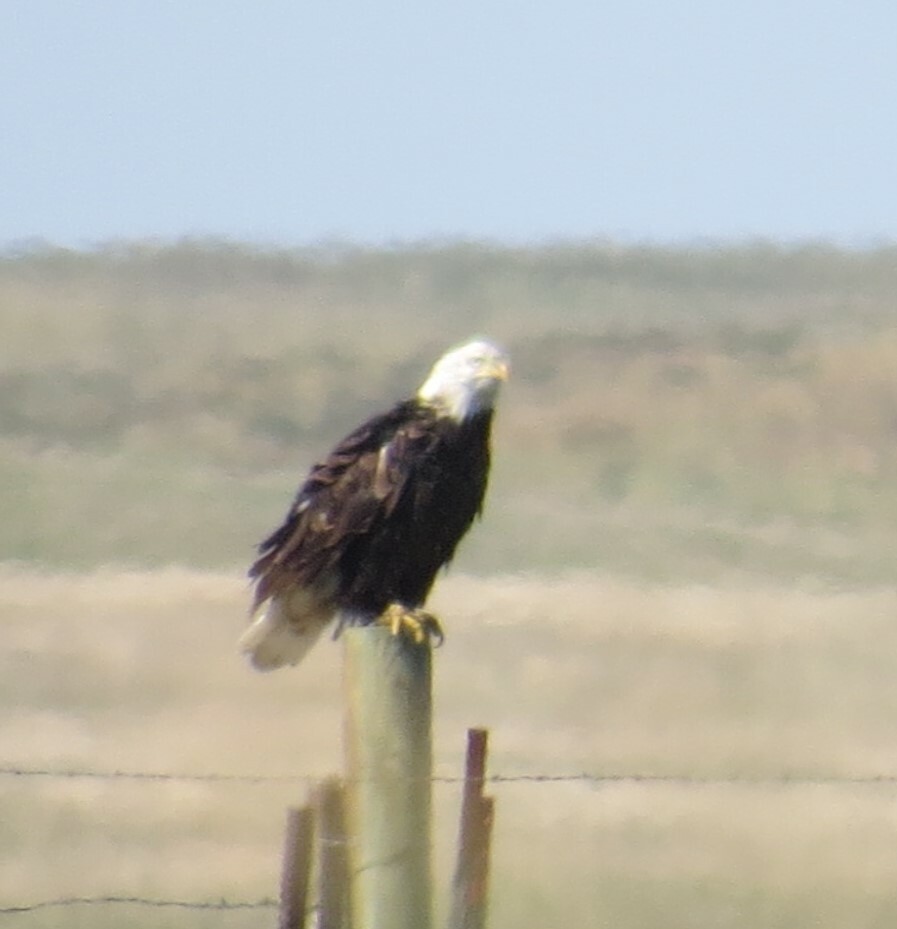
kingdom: Animalia
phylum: Chordata
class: Aves
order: Accipitriformes
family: Accipitridae
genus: Haliaeetus
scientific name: Haliaeetus leucocephalus
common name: Bald eagle
